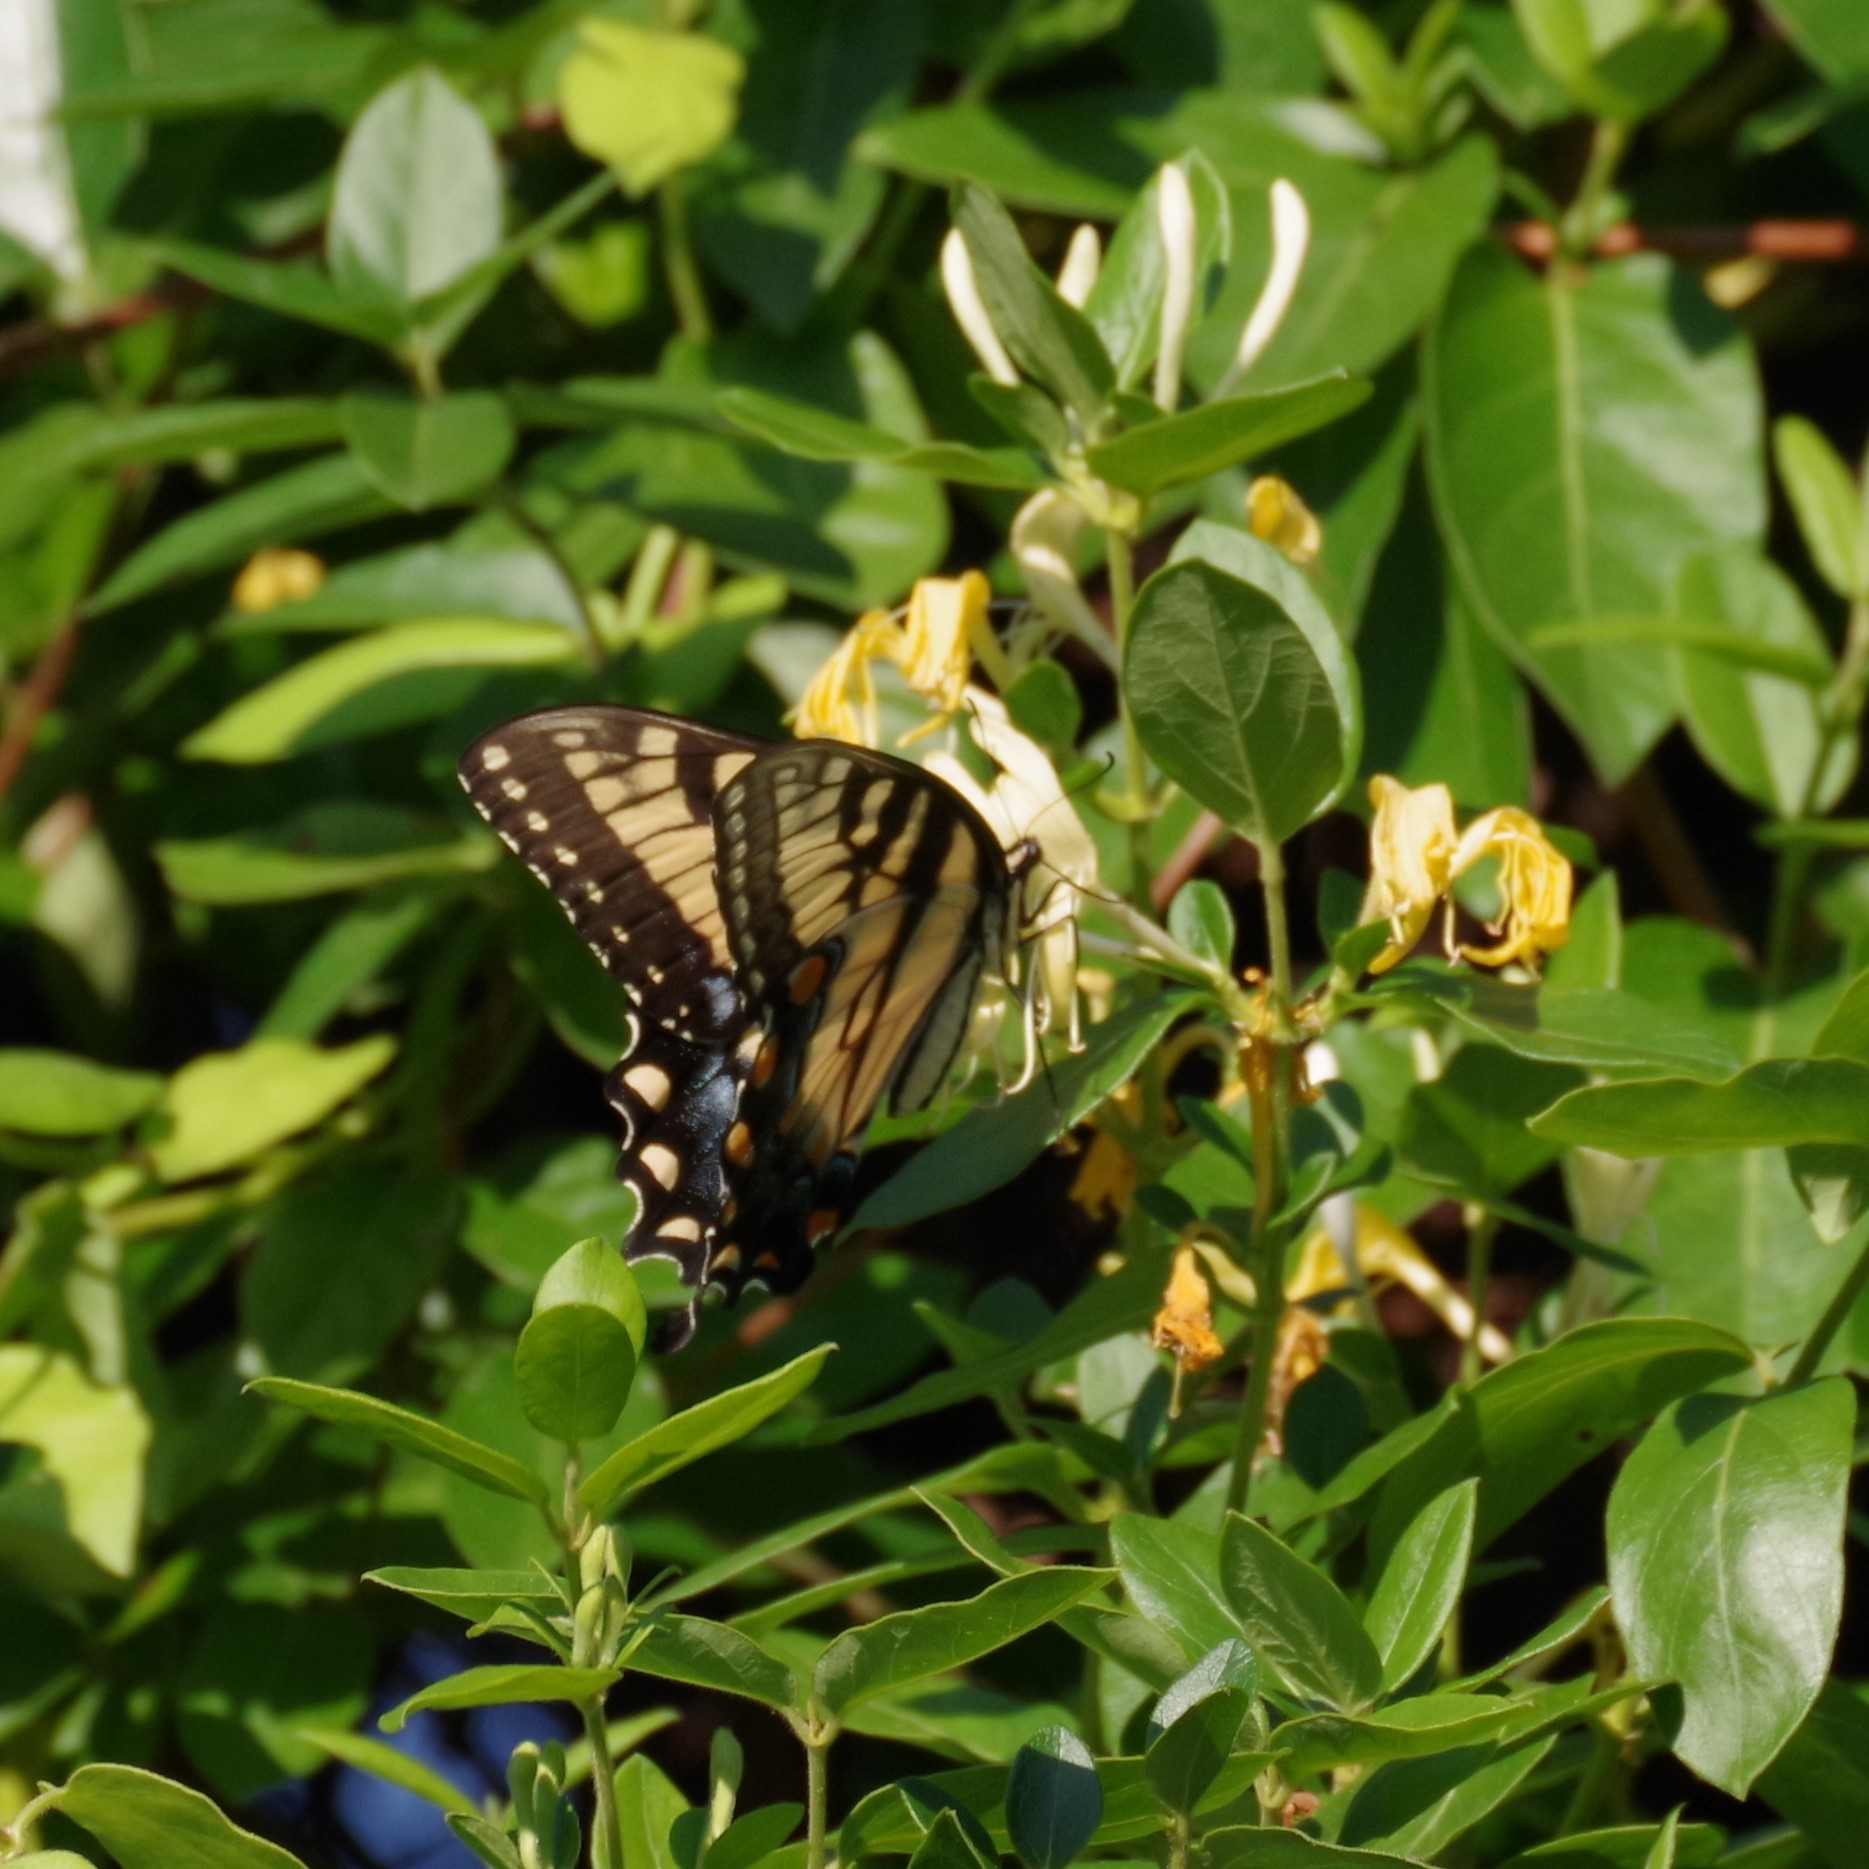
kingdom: Animalia
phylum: Arthropoda
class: Insecta
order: Lepidoptera
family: Papilionidae
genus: Papilio
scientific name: Papilio glaucus
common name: Tiger swallowtail
